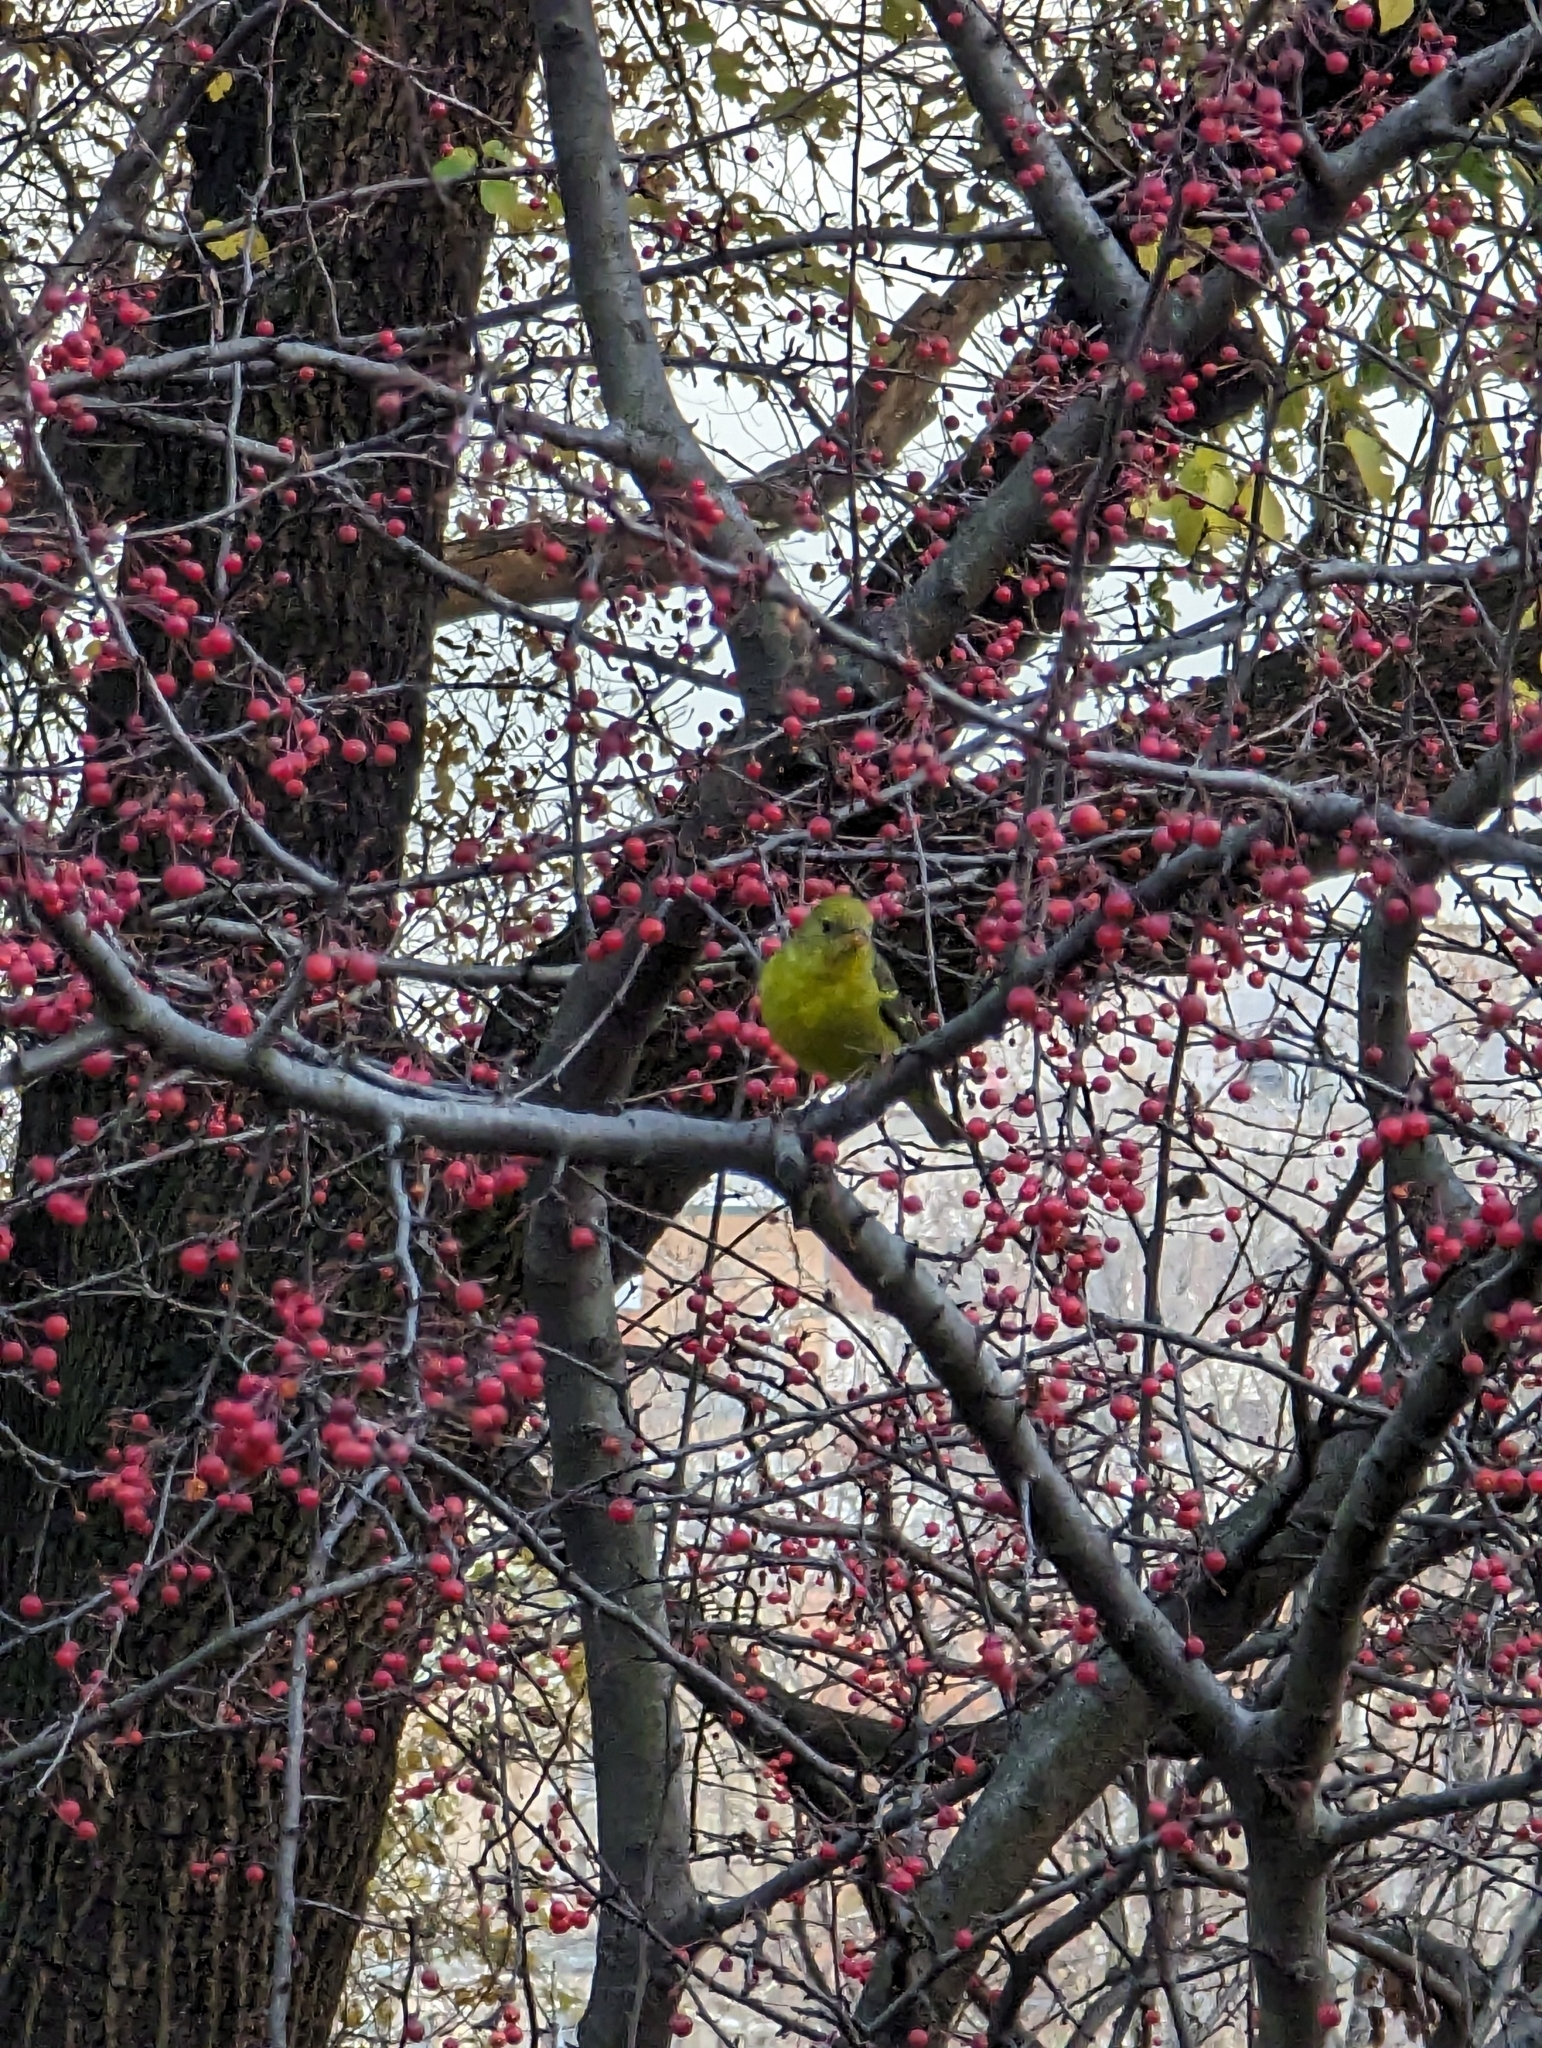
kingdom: Animalia
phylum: Chordata
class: Aves
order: Passeriformes
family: Cardinalidae
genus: Piranga
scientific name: Piranga ludoviciana
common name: Western tanager
